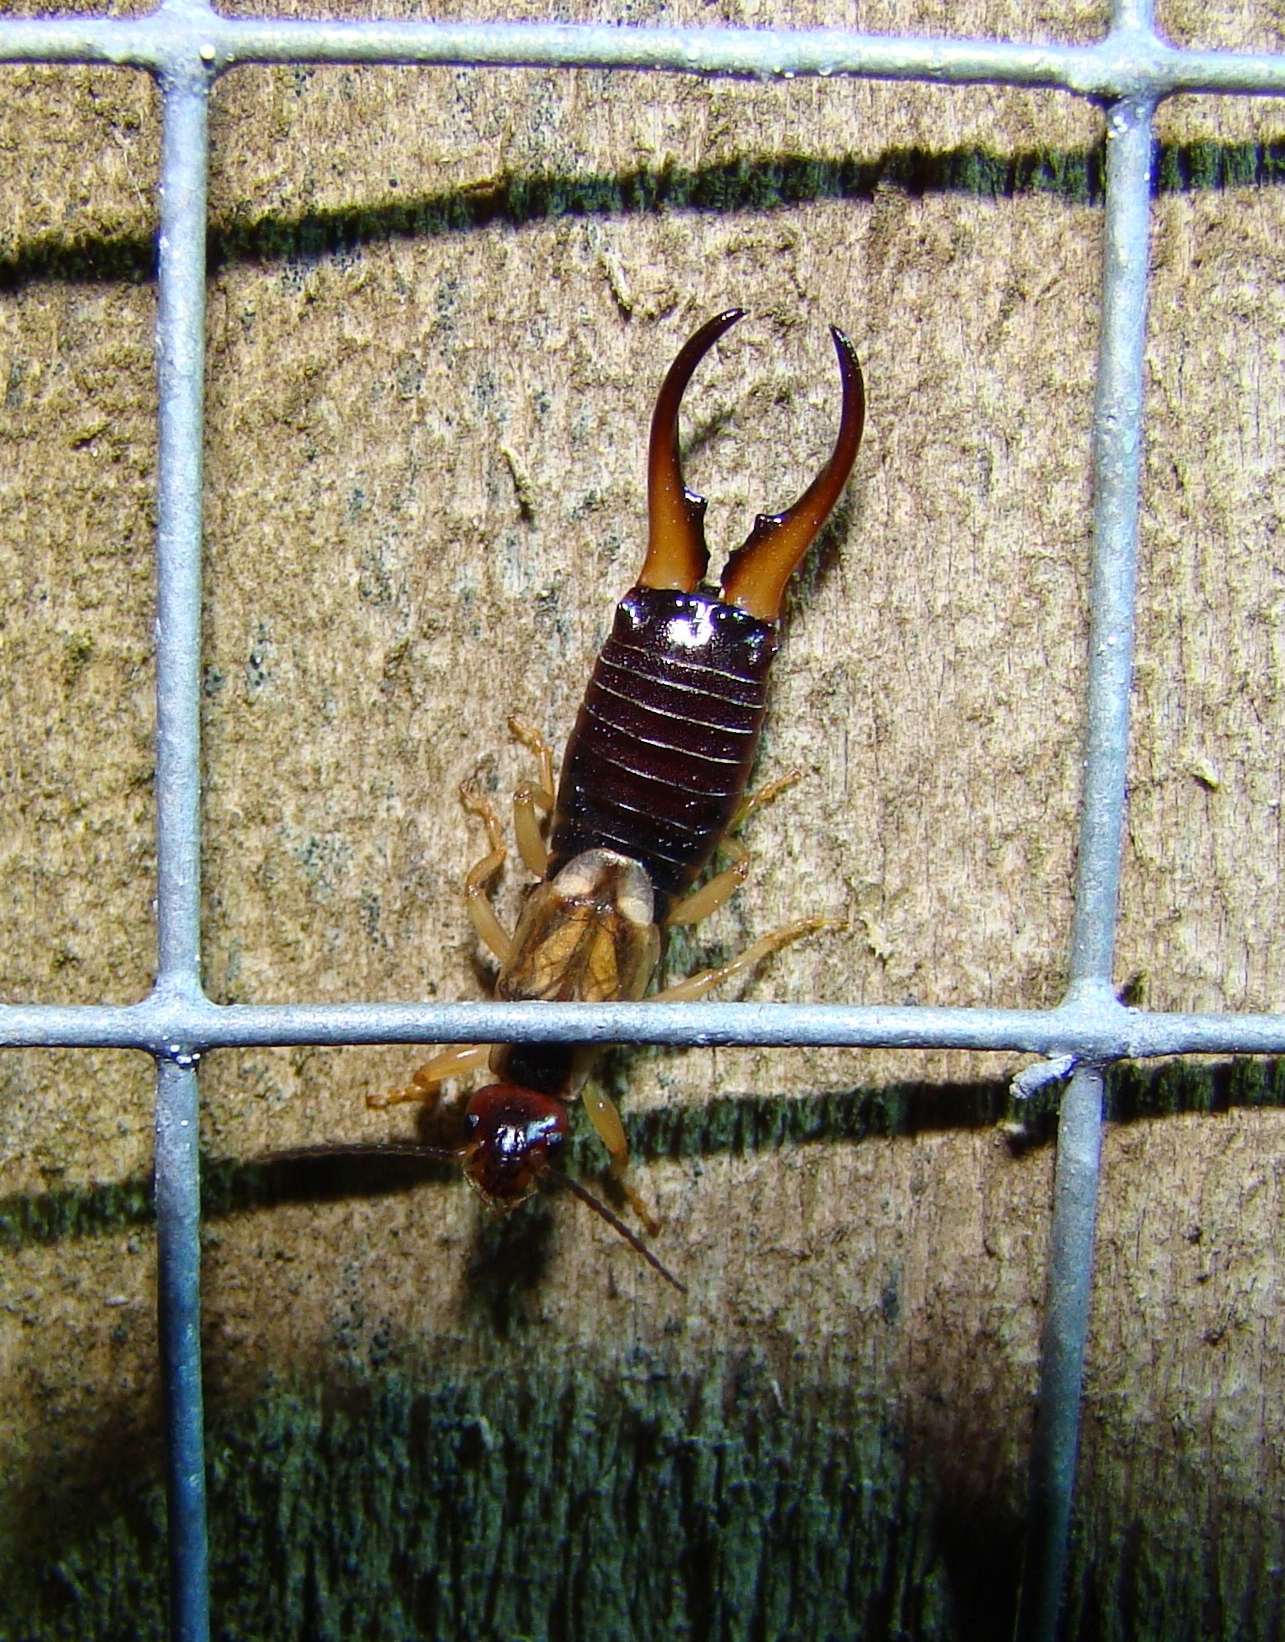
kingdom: Animalia
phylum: Arthropoda
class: Insecta
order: Dermaptera
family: Forficulidae
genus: Forficula
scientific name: Forficula
